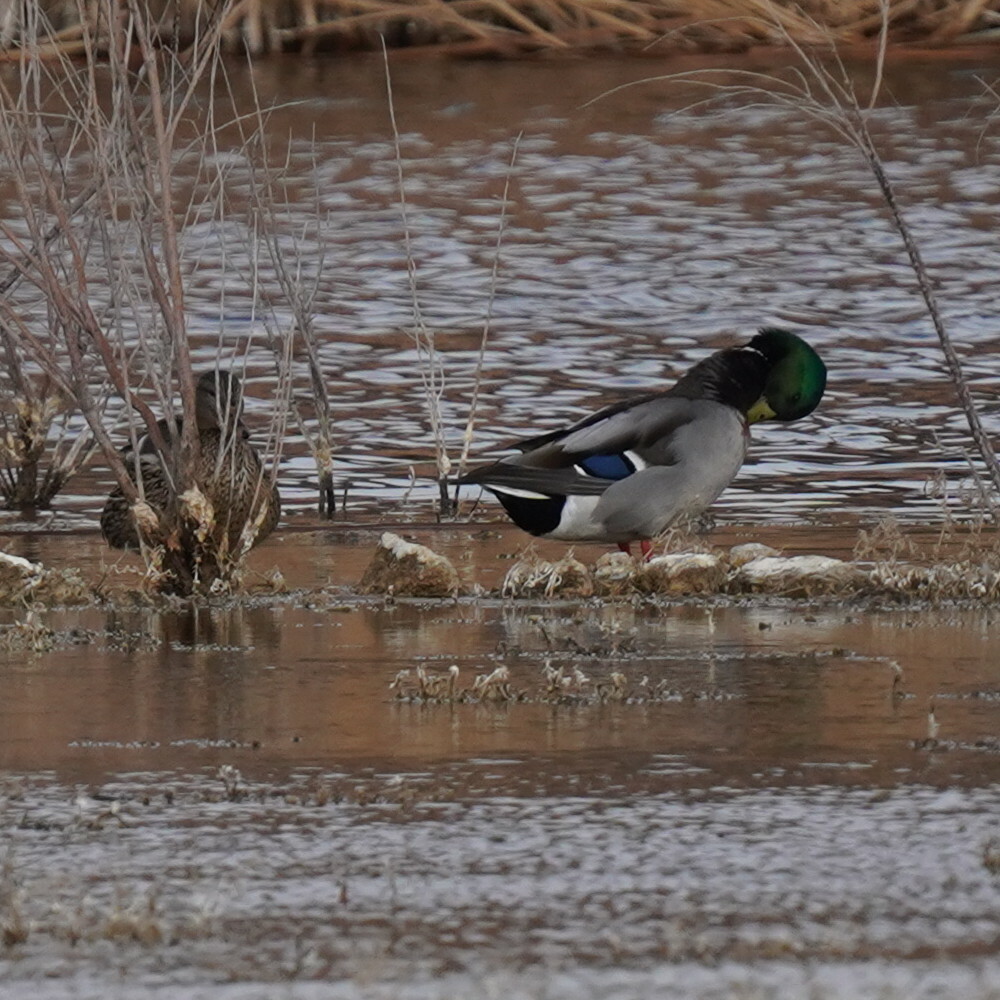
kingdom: Animalia
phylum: Chordata
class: Aves
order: Anseriformes
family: Anatidae
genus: Anas
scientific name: Anas platyrhynchos
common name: Mallard
